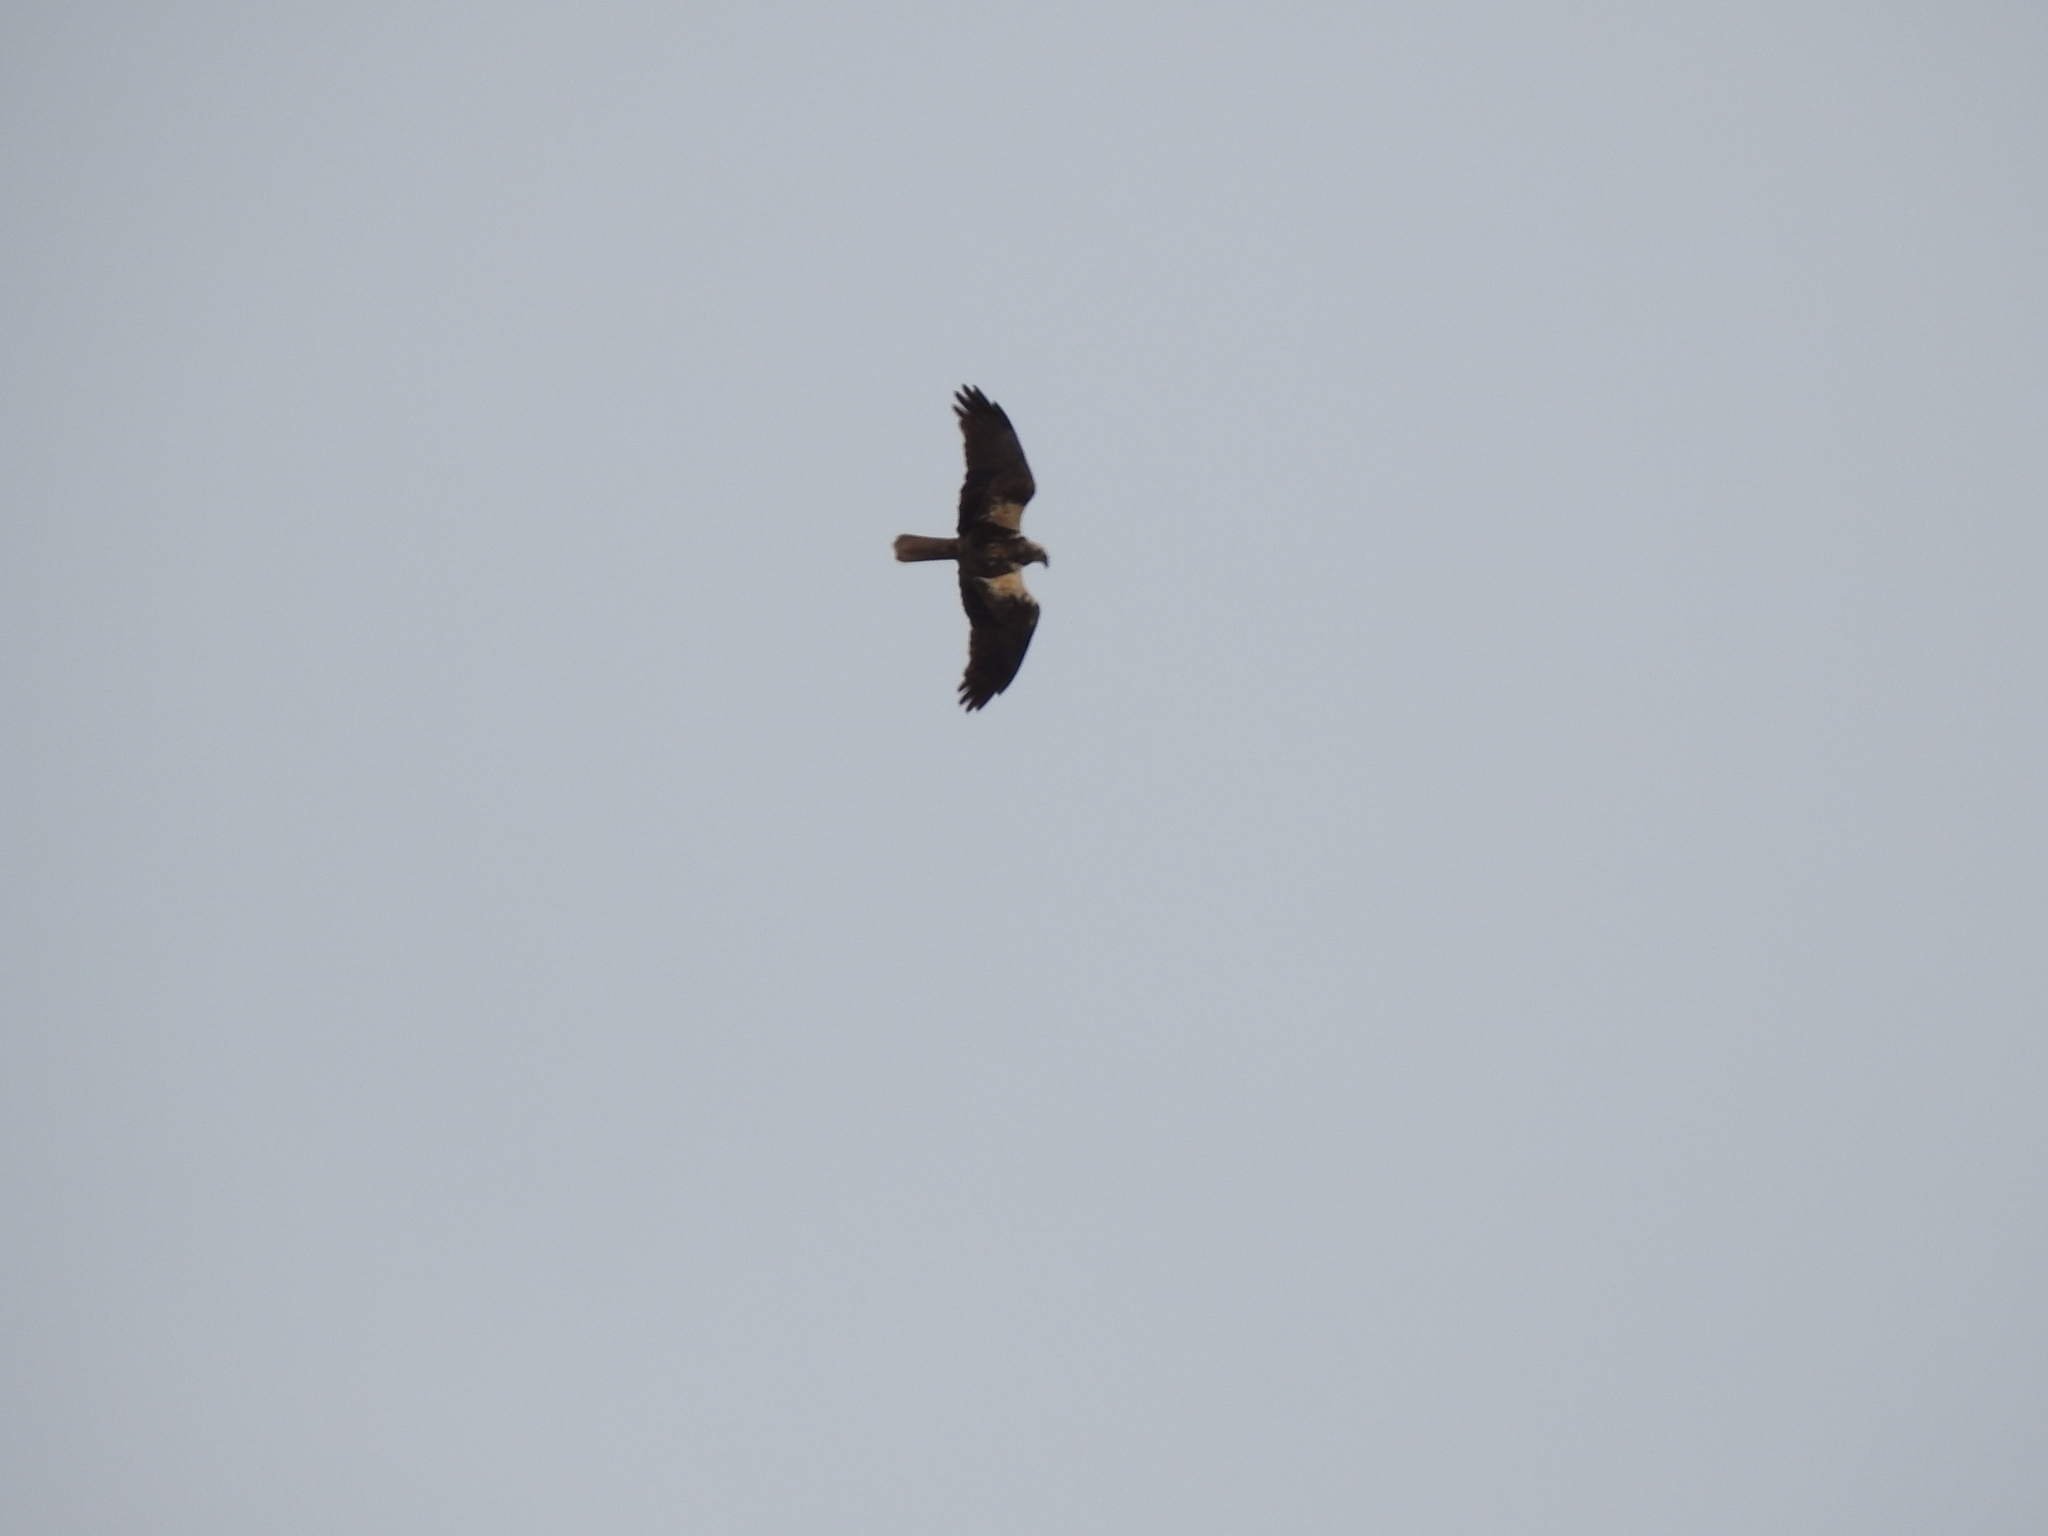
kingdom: Animalia
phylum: Chordata
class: Aves
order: Accipitriformes
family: Accipitridae
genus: Circus
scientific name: Circus aeruginosus
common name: Western marsh harrier
